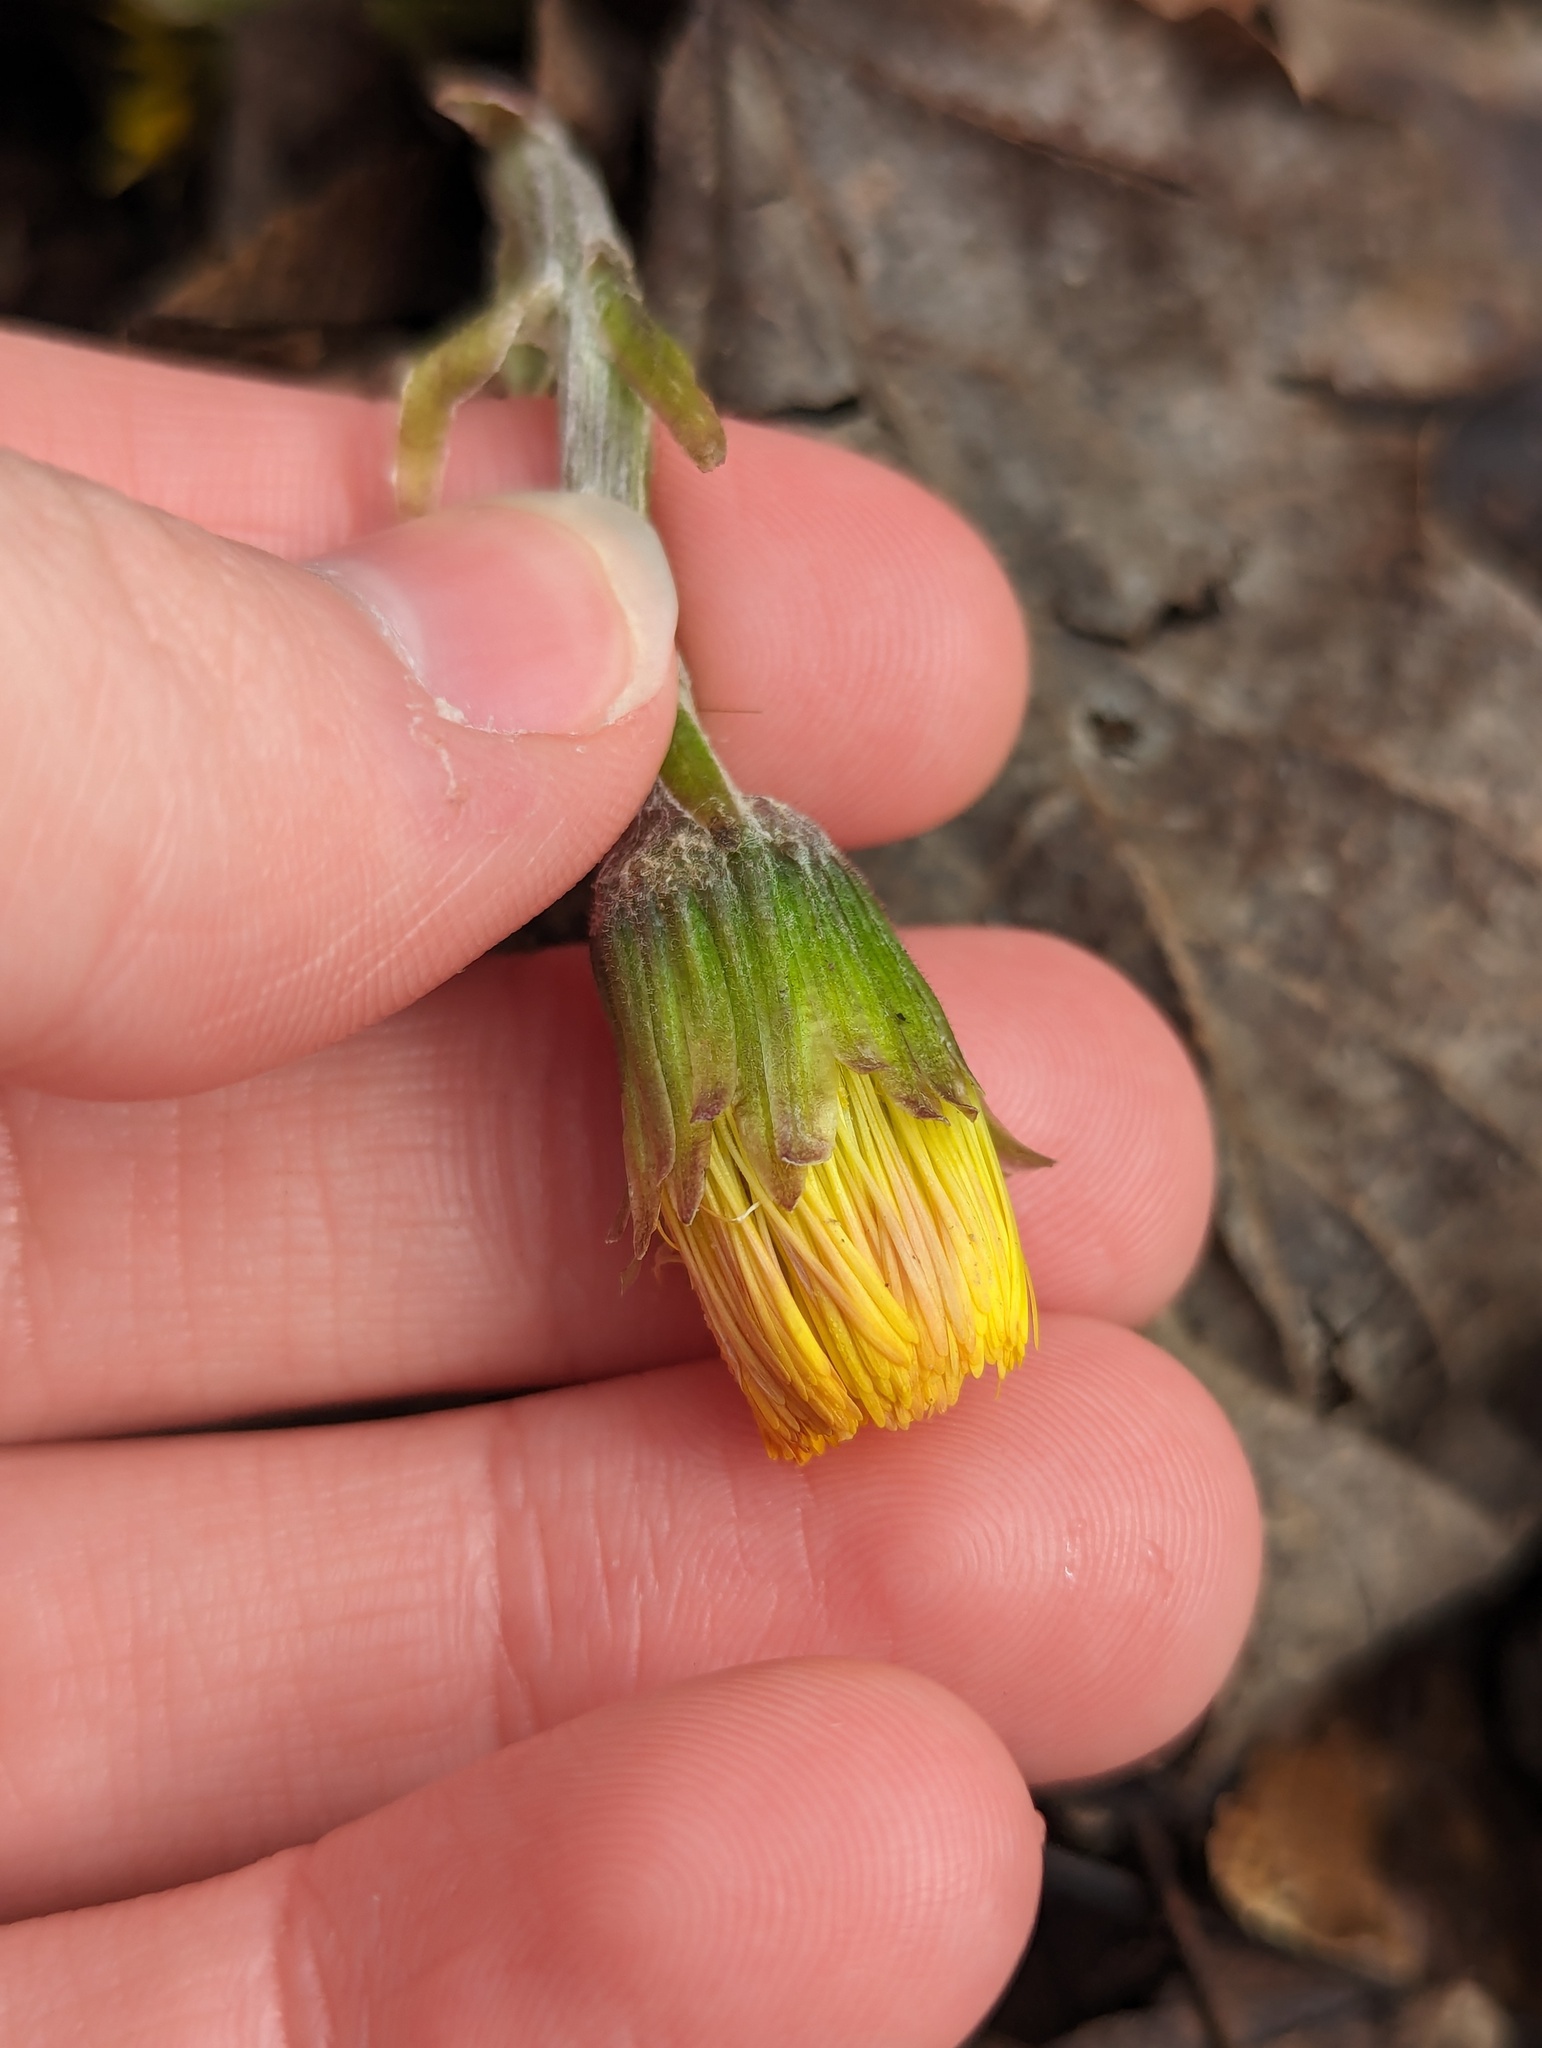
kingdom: Plantae
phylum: Tracheophyta
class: Magnoliopsida
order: Asterales
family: Asteraceae
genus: Tussilago
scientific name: Tussilago farfara
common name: Coltsfoot
